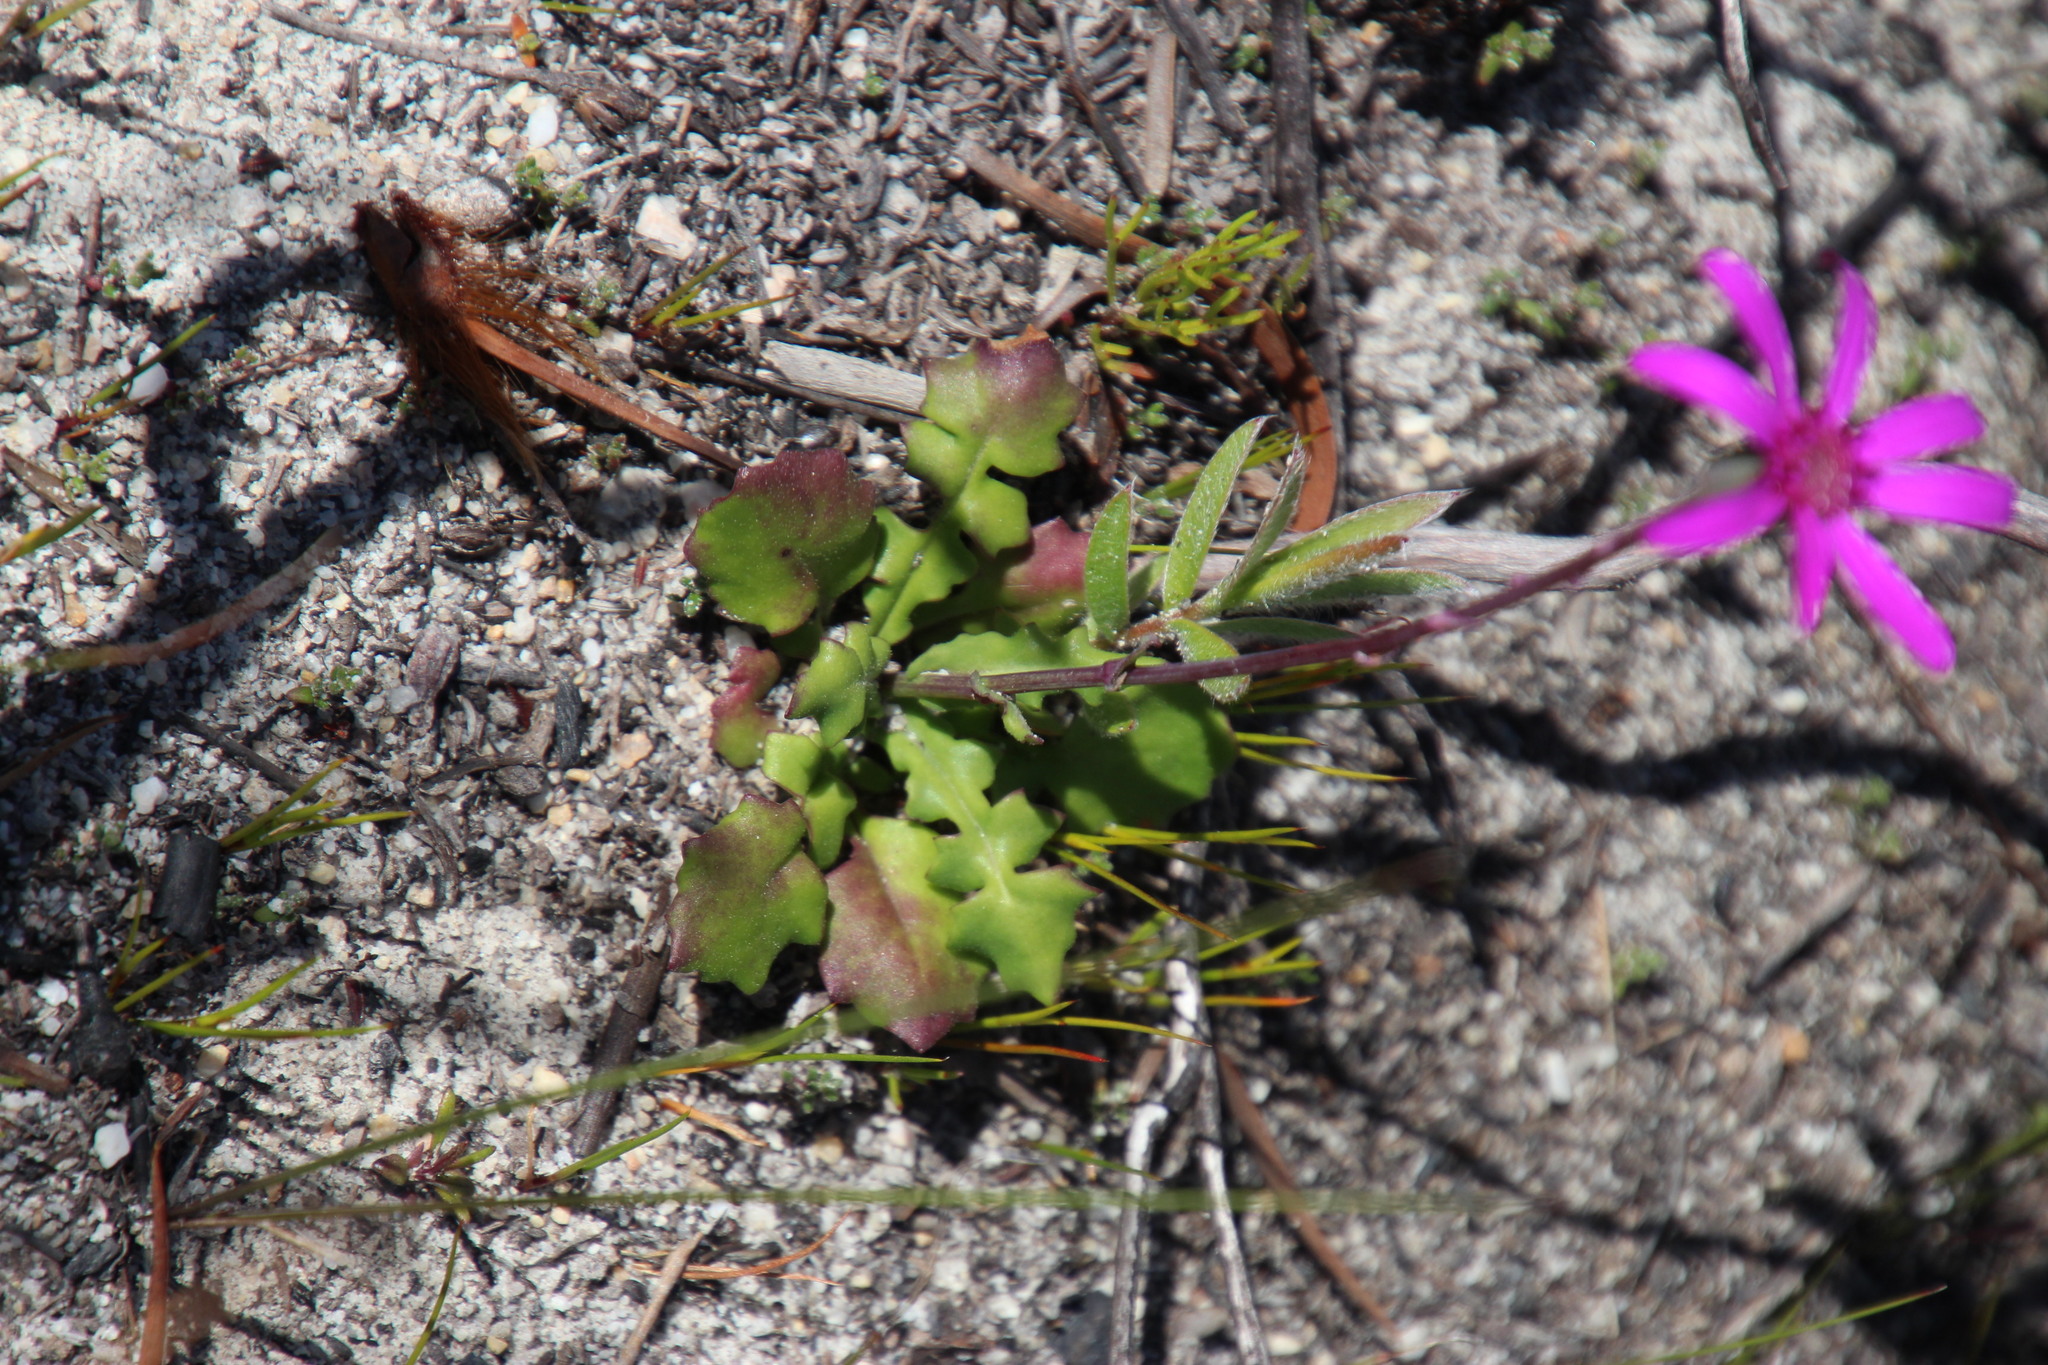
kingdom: Plantae
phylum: Tracheophyta
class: Magnoliopsida
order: Asterales
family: Asteraceae
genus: Senecio
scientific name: Senecio cymbalariifolius
